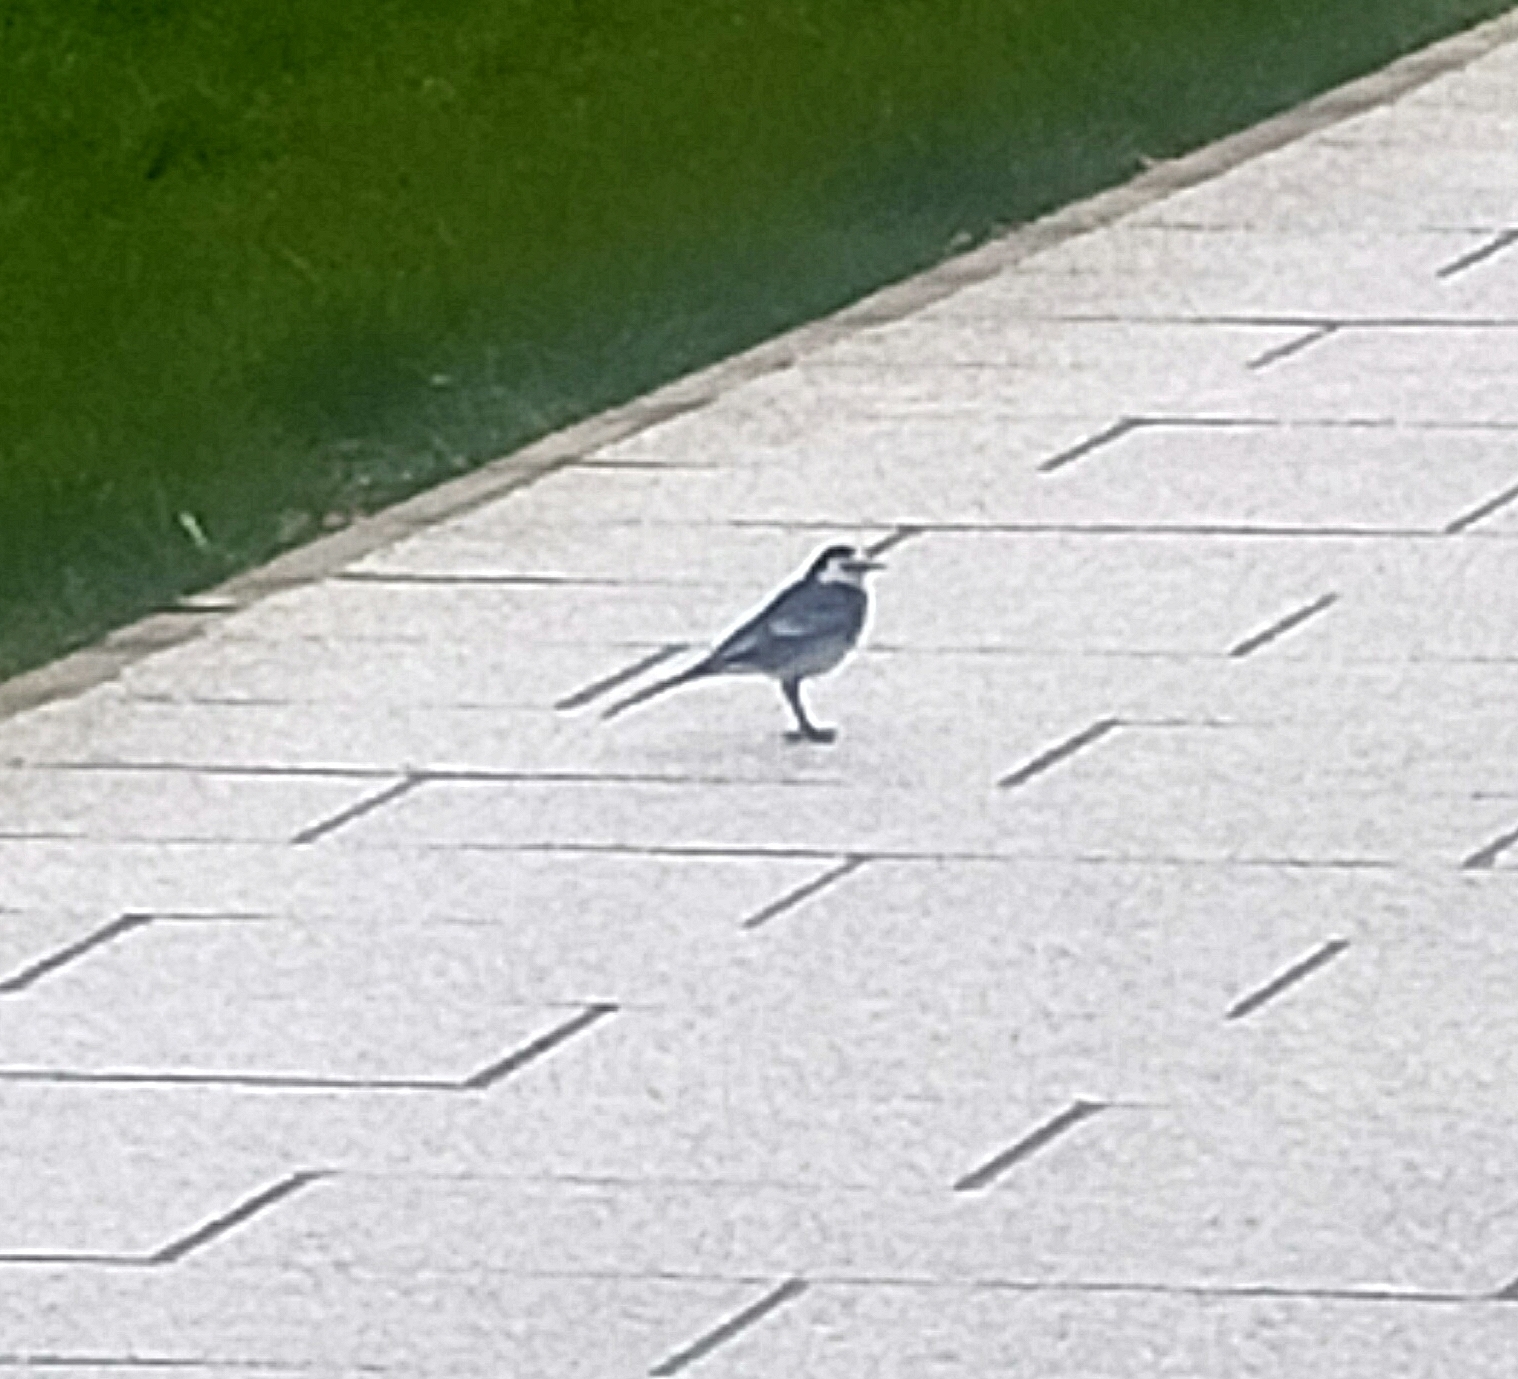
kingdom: Animalia
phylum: Chordata
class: Aves
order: Passeriformes
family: Motacillidae
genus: Motacilla
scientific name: Motacilla alba
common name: White wagtail
